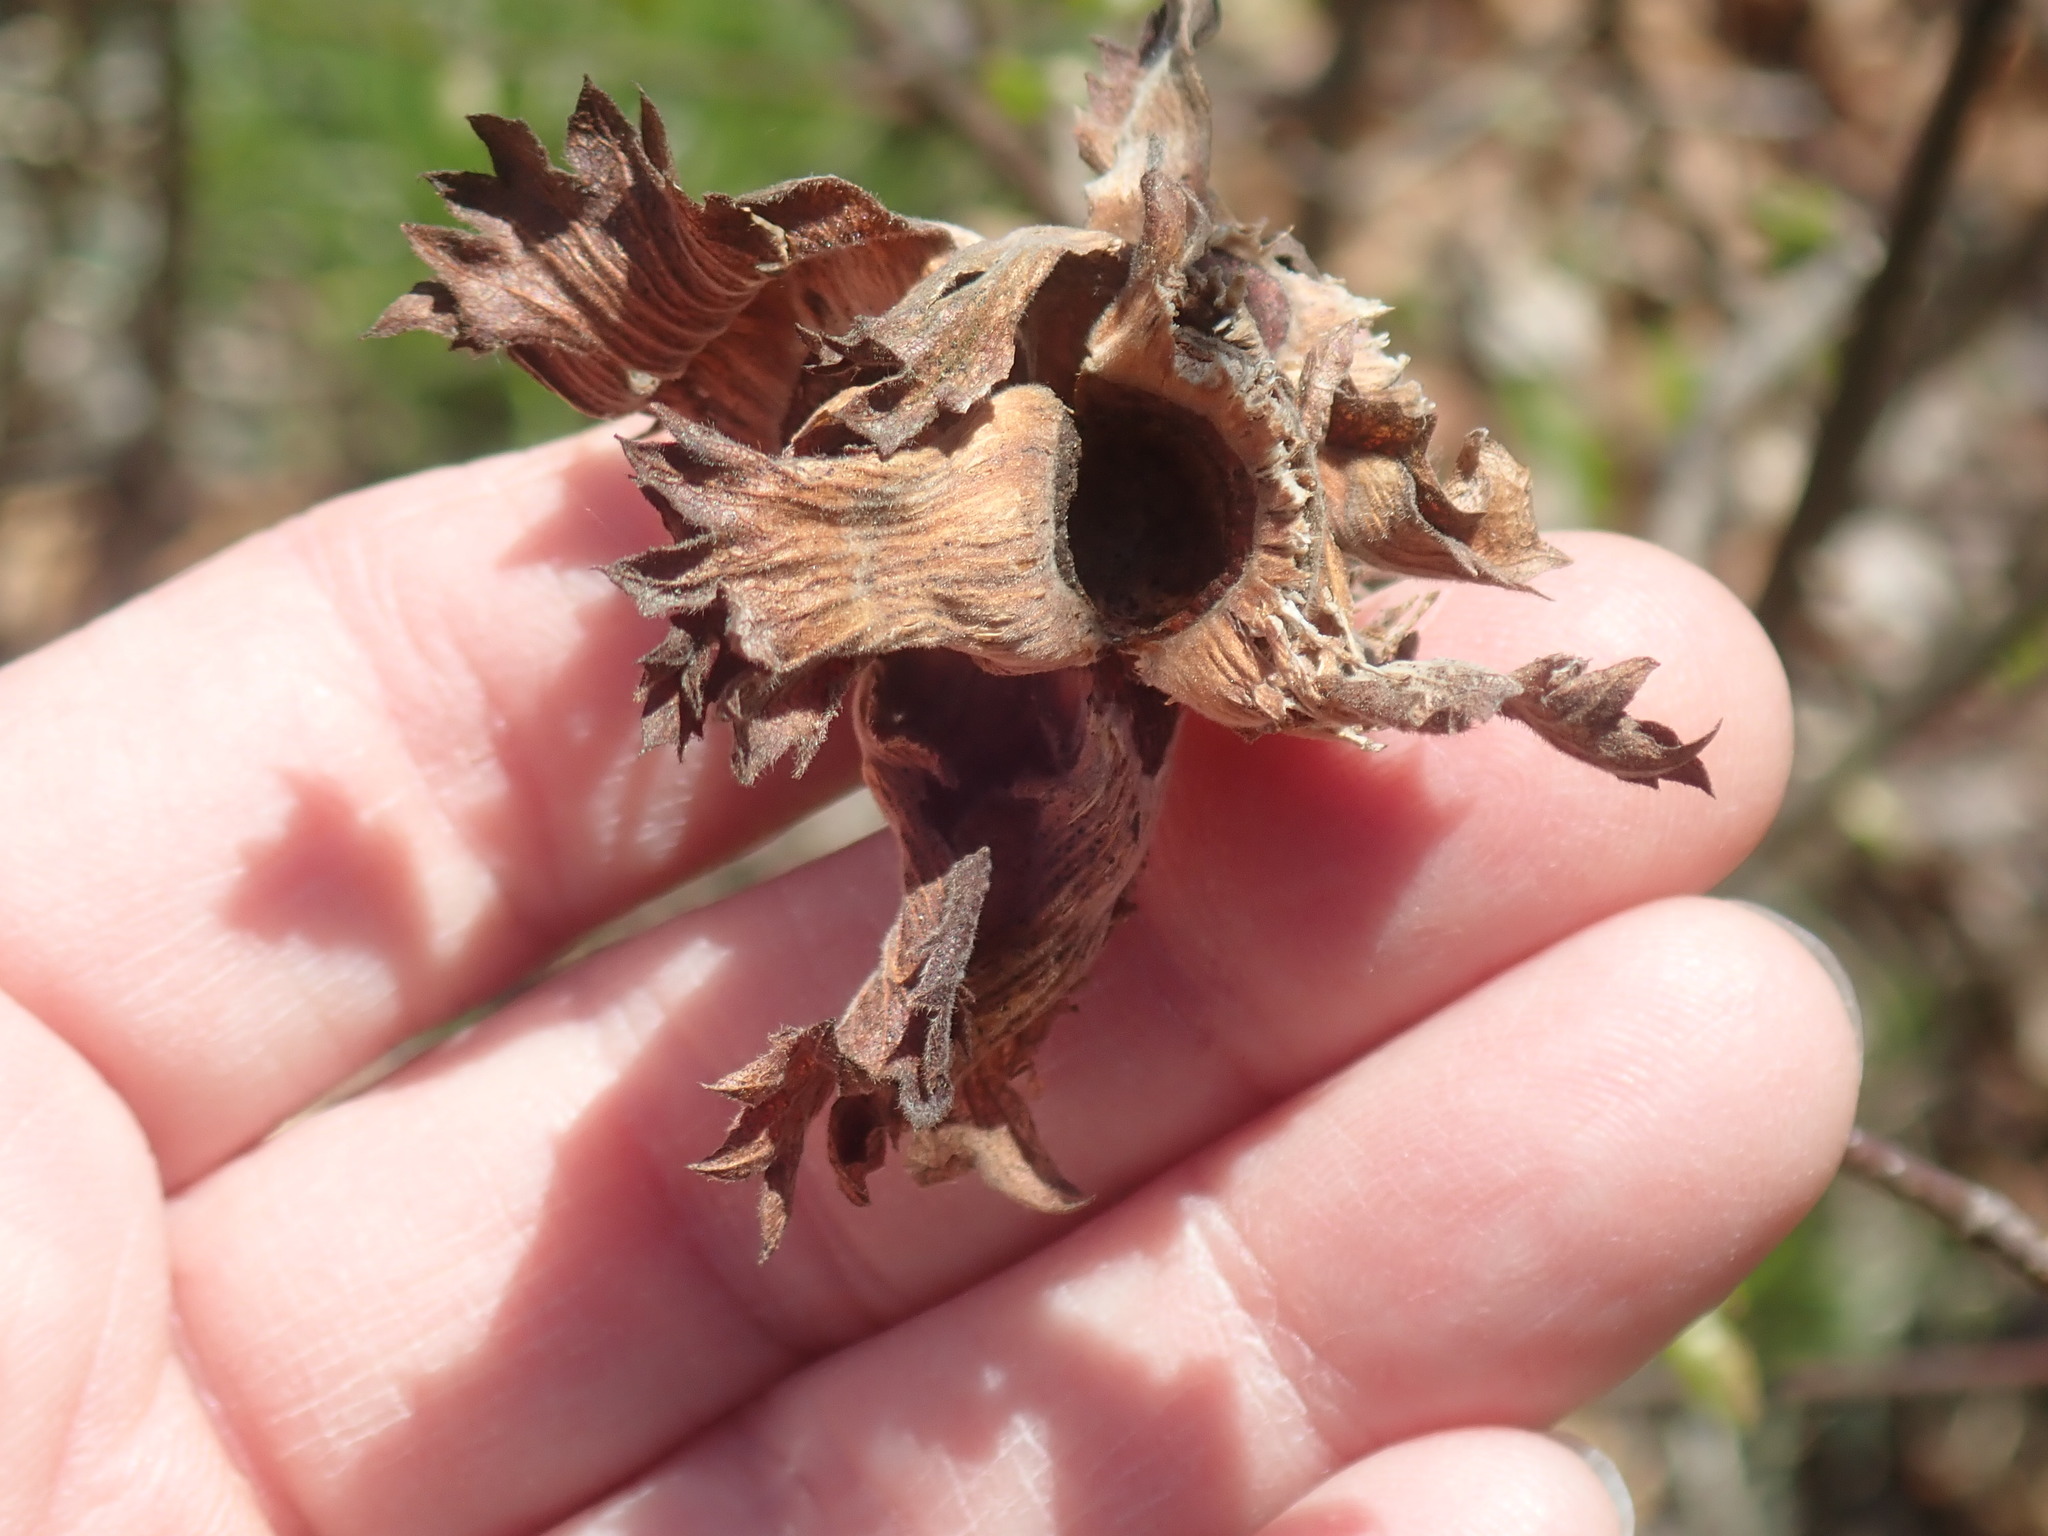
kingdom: Plantae
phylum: Tracheophyta
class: Magnoliopsida
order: Fagales
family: Betulaceae
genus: Corylus
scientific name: Corylus americana
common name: American hazel
